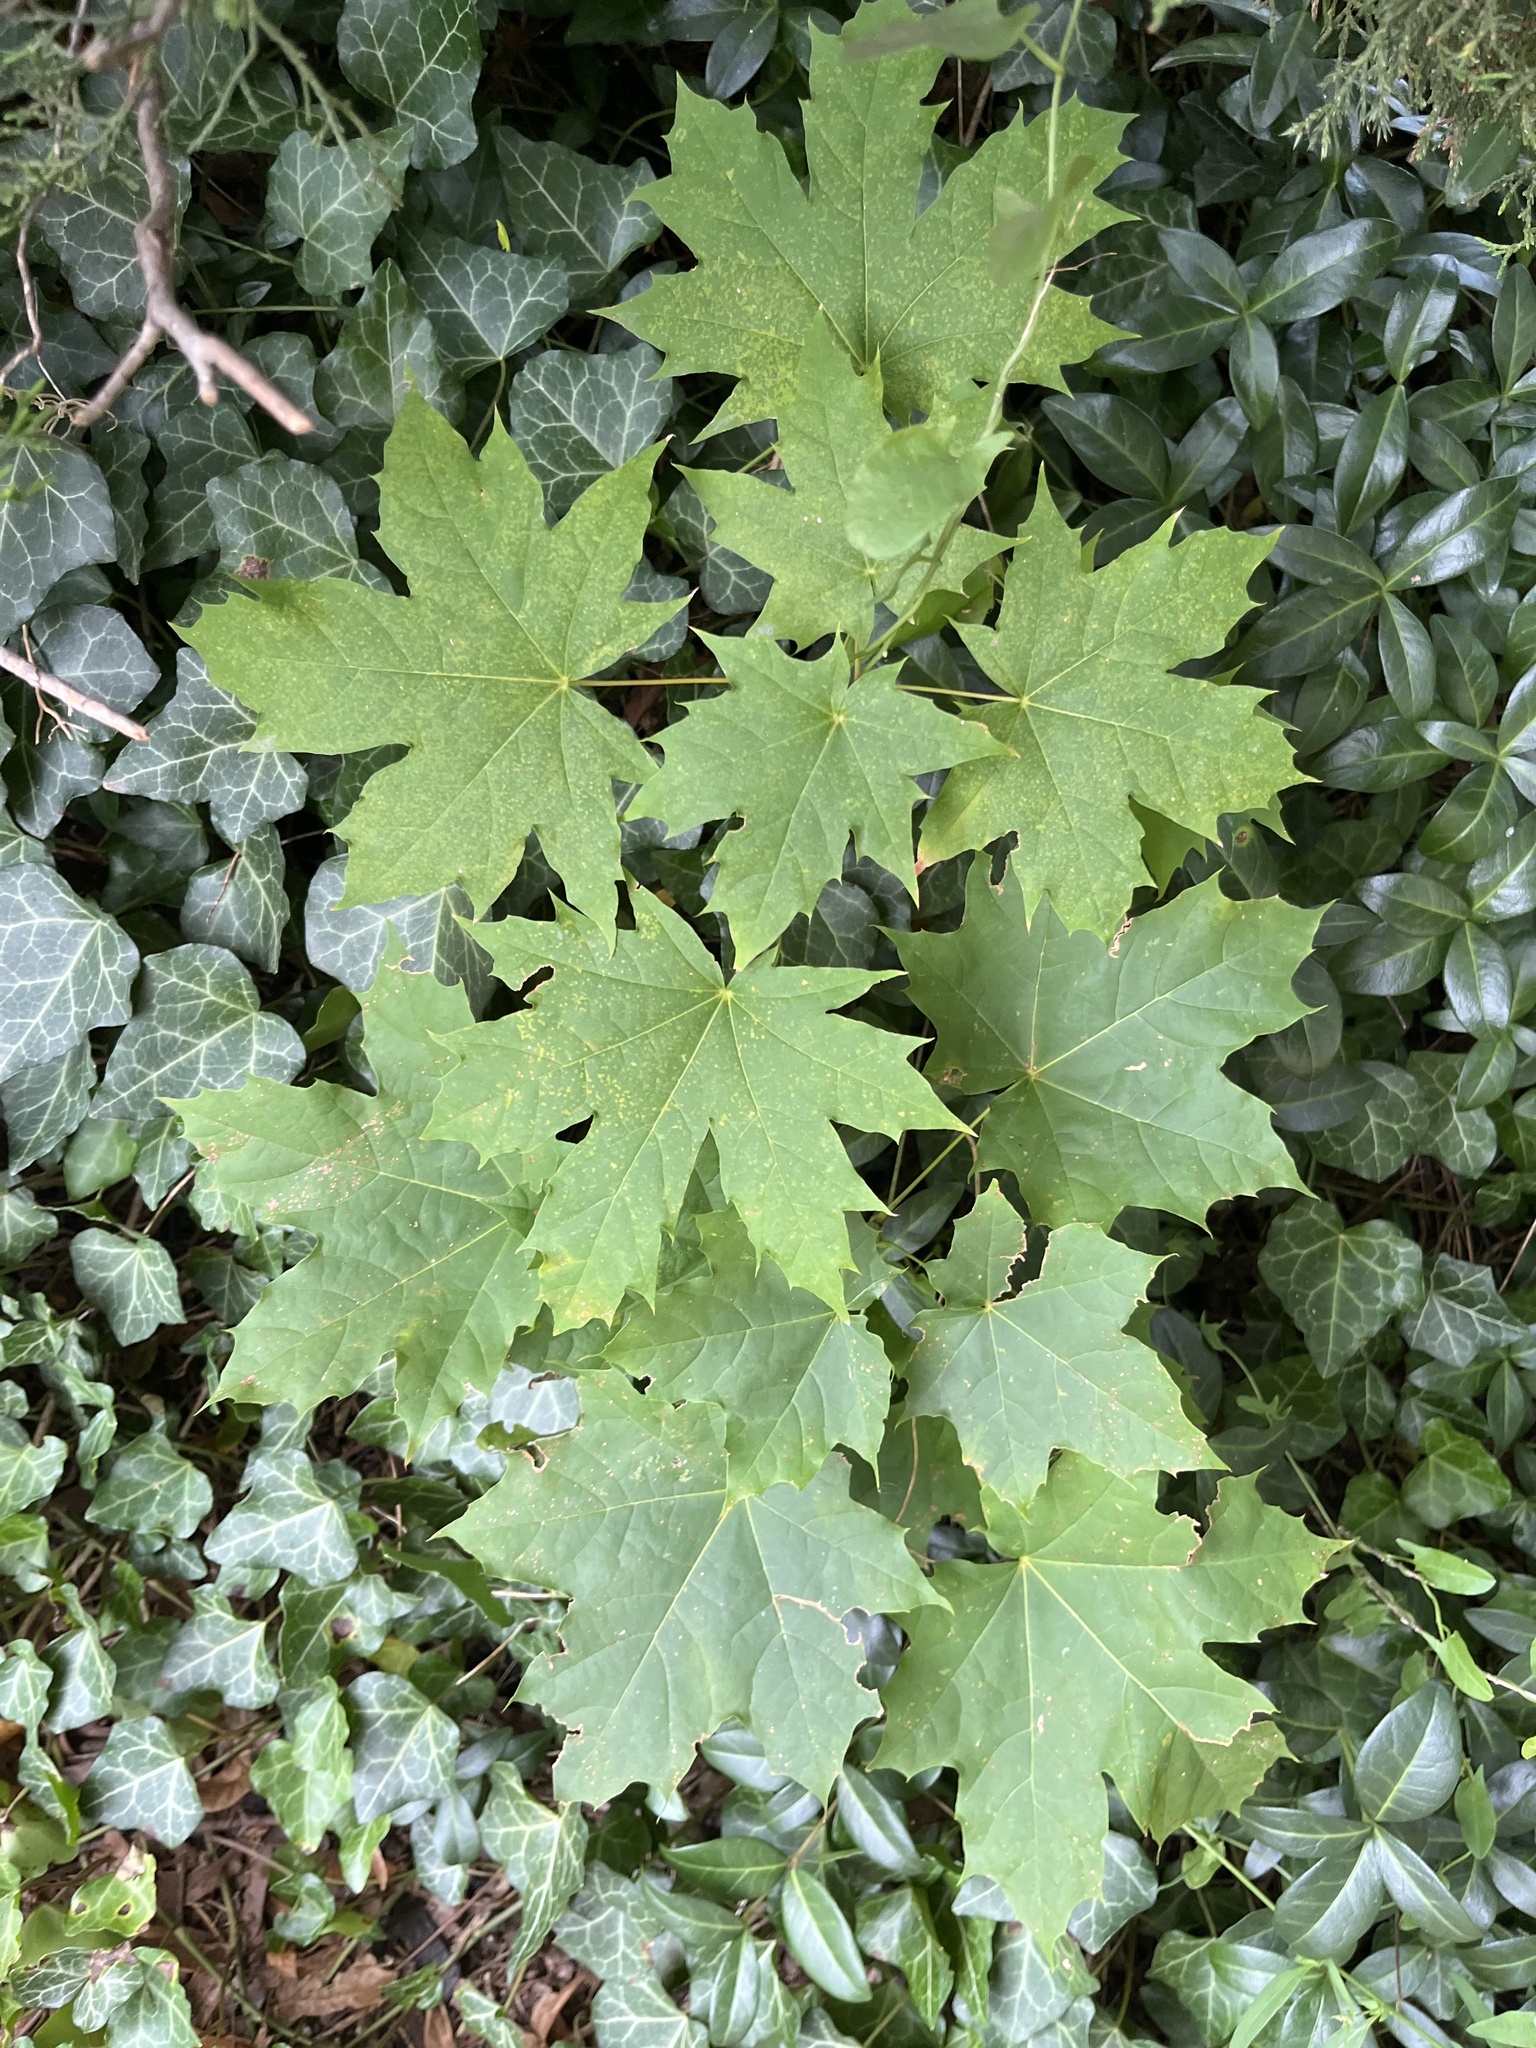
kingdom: Plantae
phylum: Tracheophyta
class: Magnoliopsida
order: Sapindales
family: Sapindaceae
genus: Acer
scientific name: Acer platanoides
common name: Norway maple
